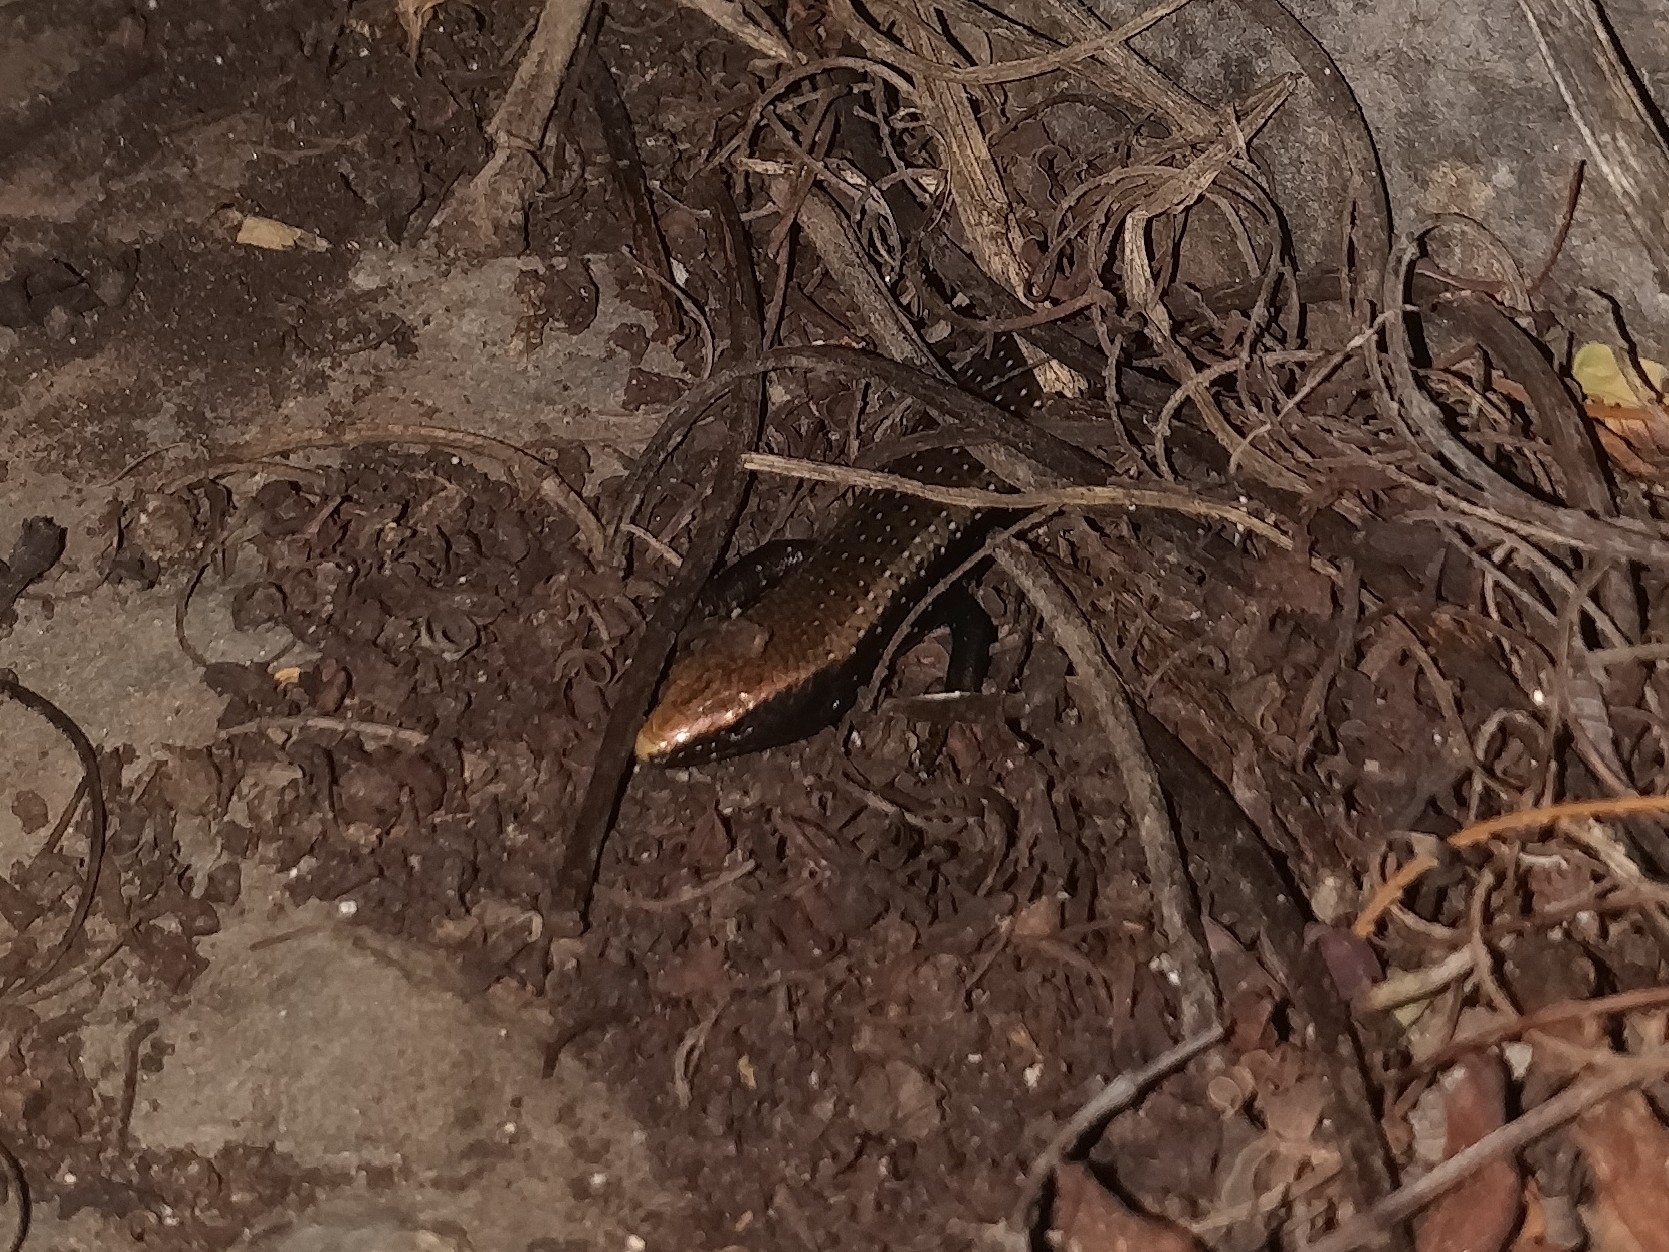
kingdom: Animalia
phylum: Chordata
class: Squamata
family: Scincidae
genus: Chalcides
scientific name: Chalcides coeruleopunctatus
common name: La gomera skink
